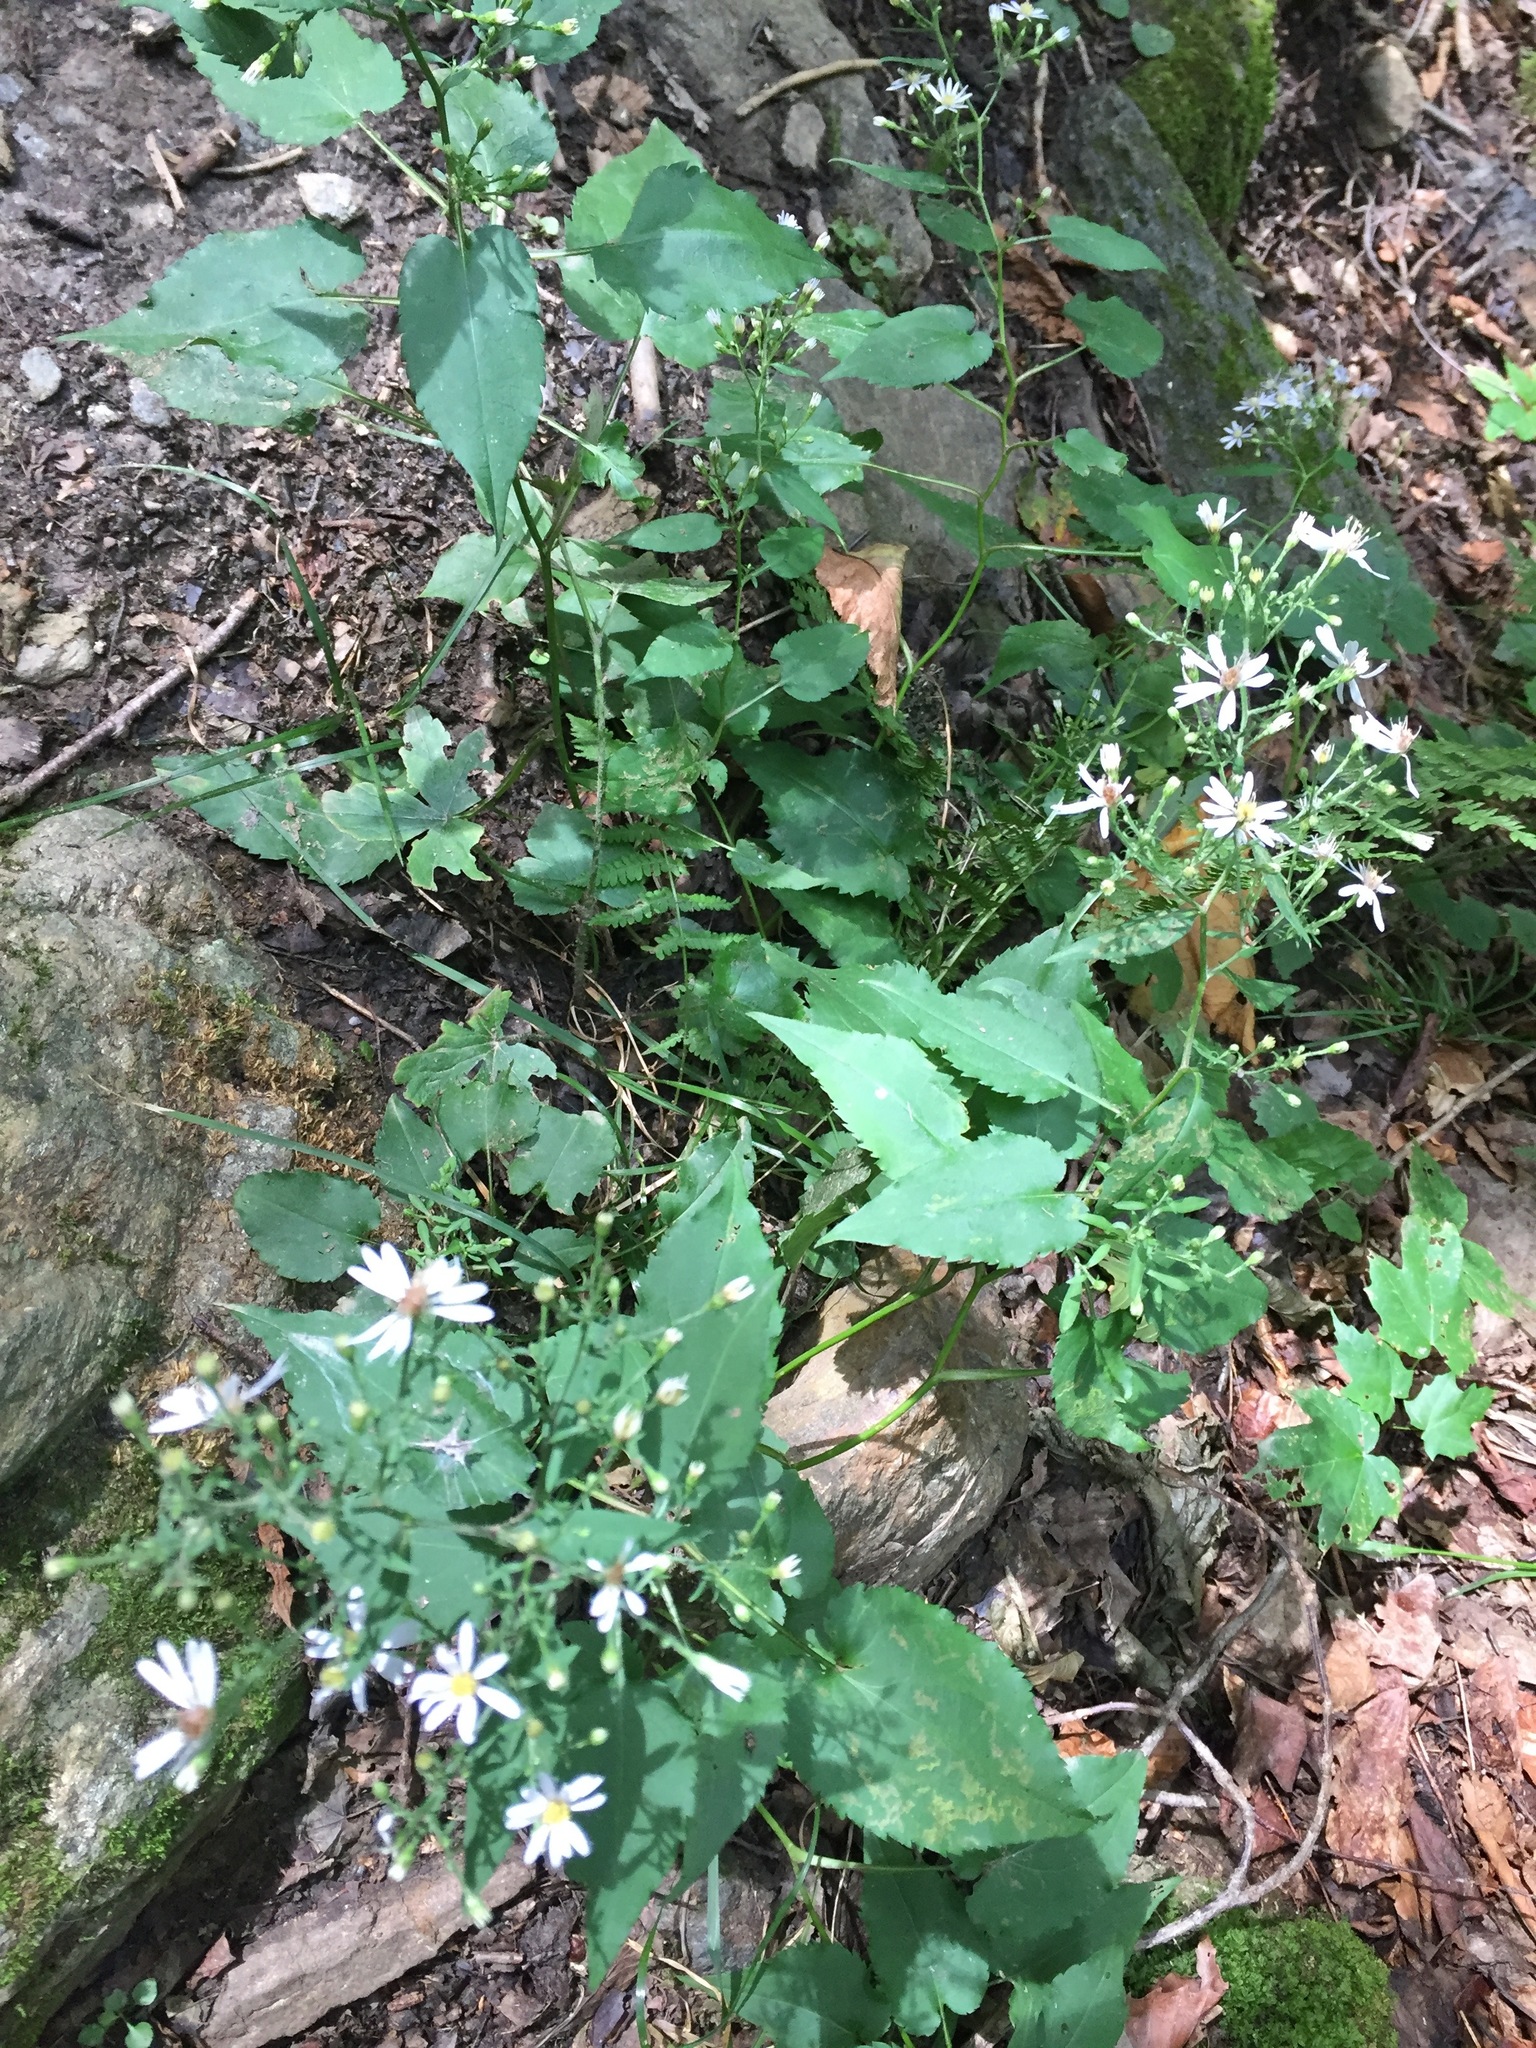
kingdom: Plantae
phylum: Tracheophyta
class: Magnoliopsida
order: Asterales
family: Asteraceae
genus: Eurybia
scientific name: Eurybia divaricata
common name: White wood aster
